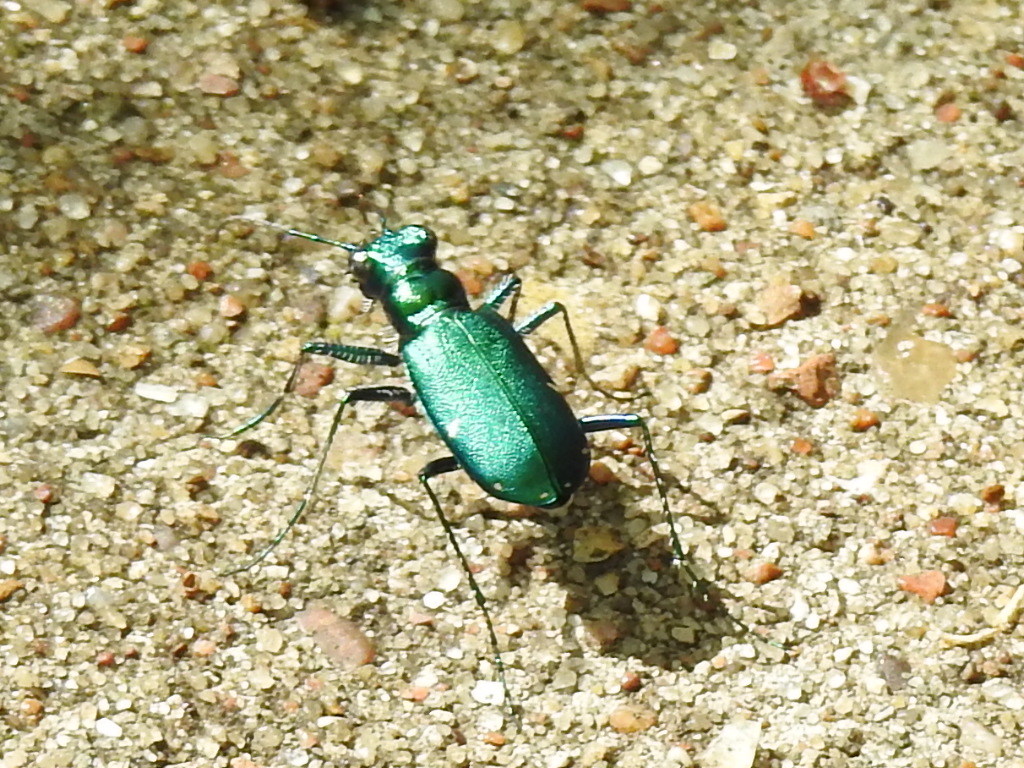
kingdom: Animalia
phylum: Arthropoda
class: Insecta
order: Coleoptera
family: Carabidae
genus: Cicindela
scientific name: Cicindela sexguttata
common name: Six-spotted tiger beetle
